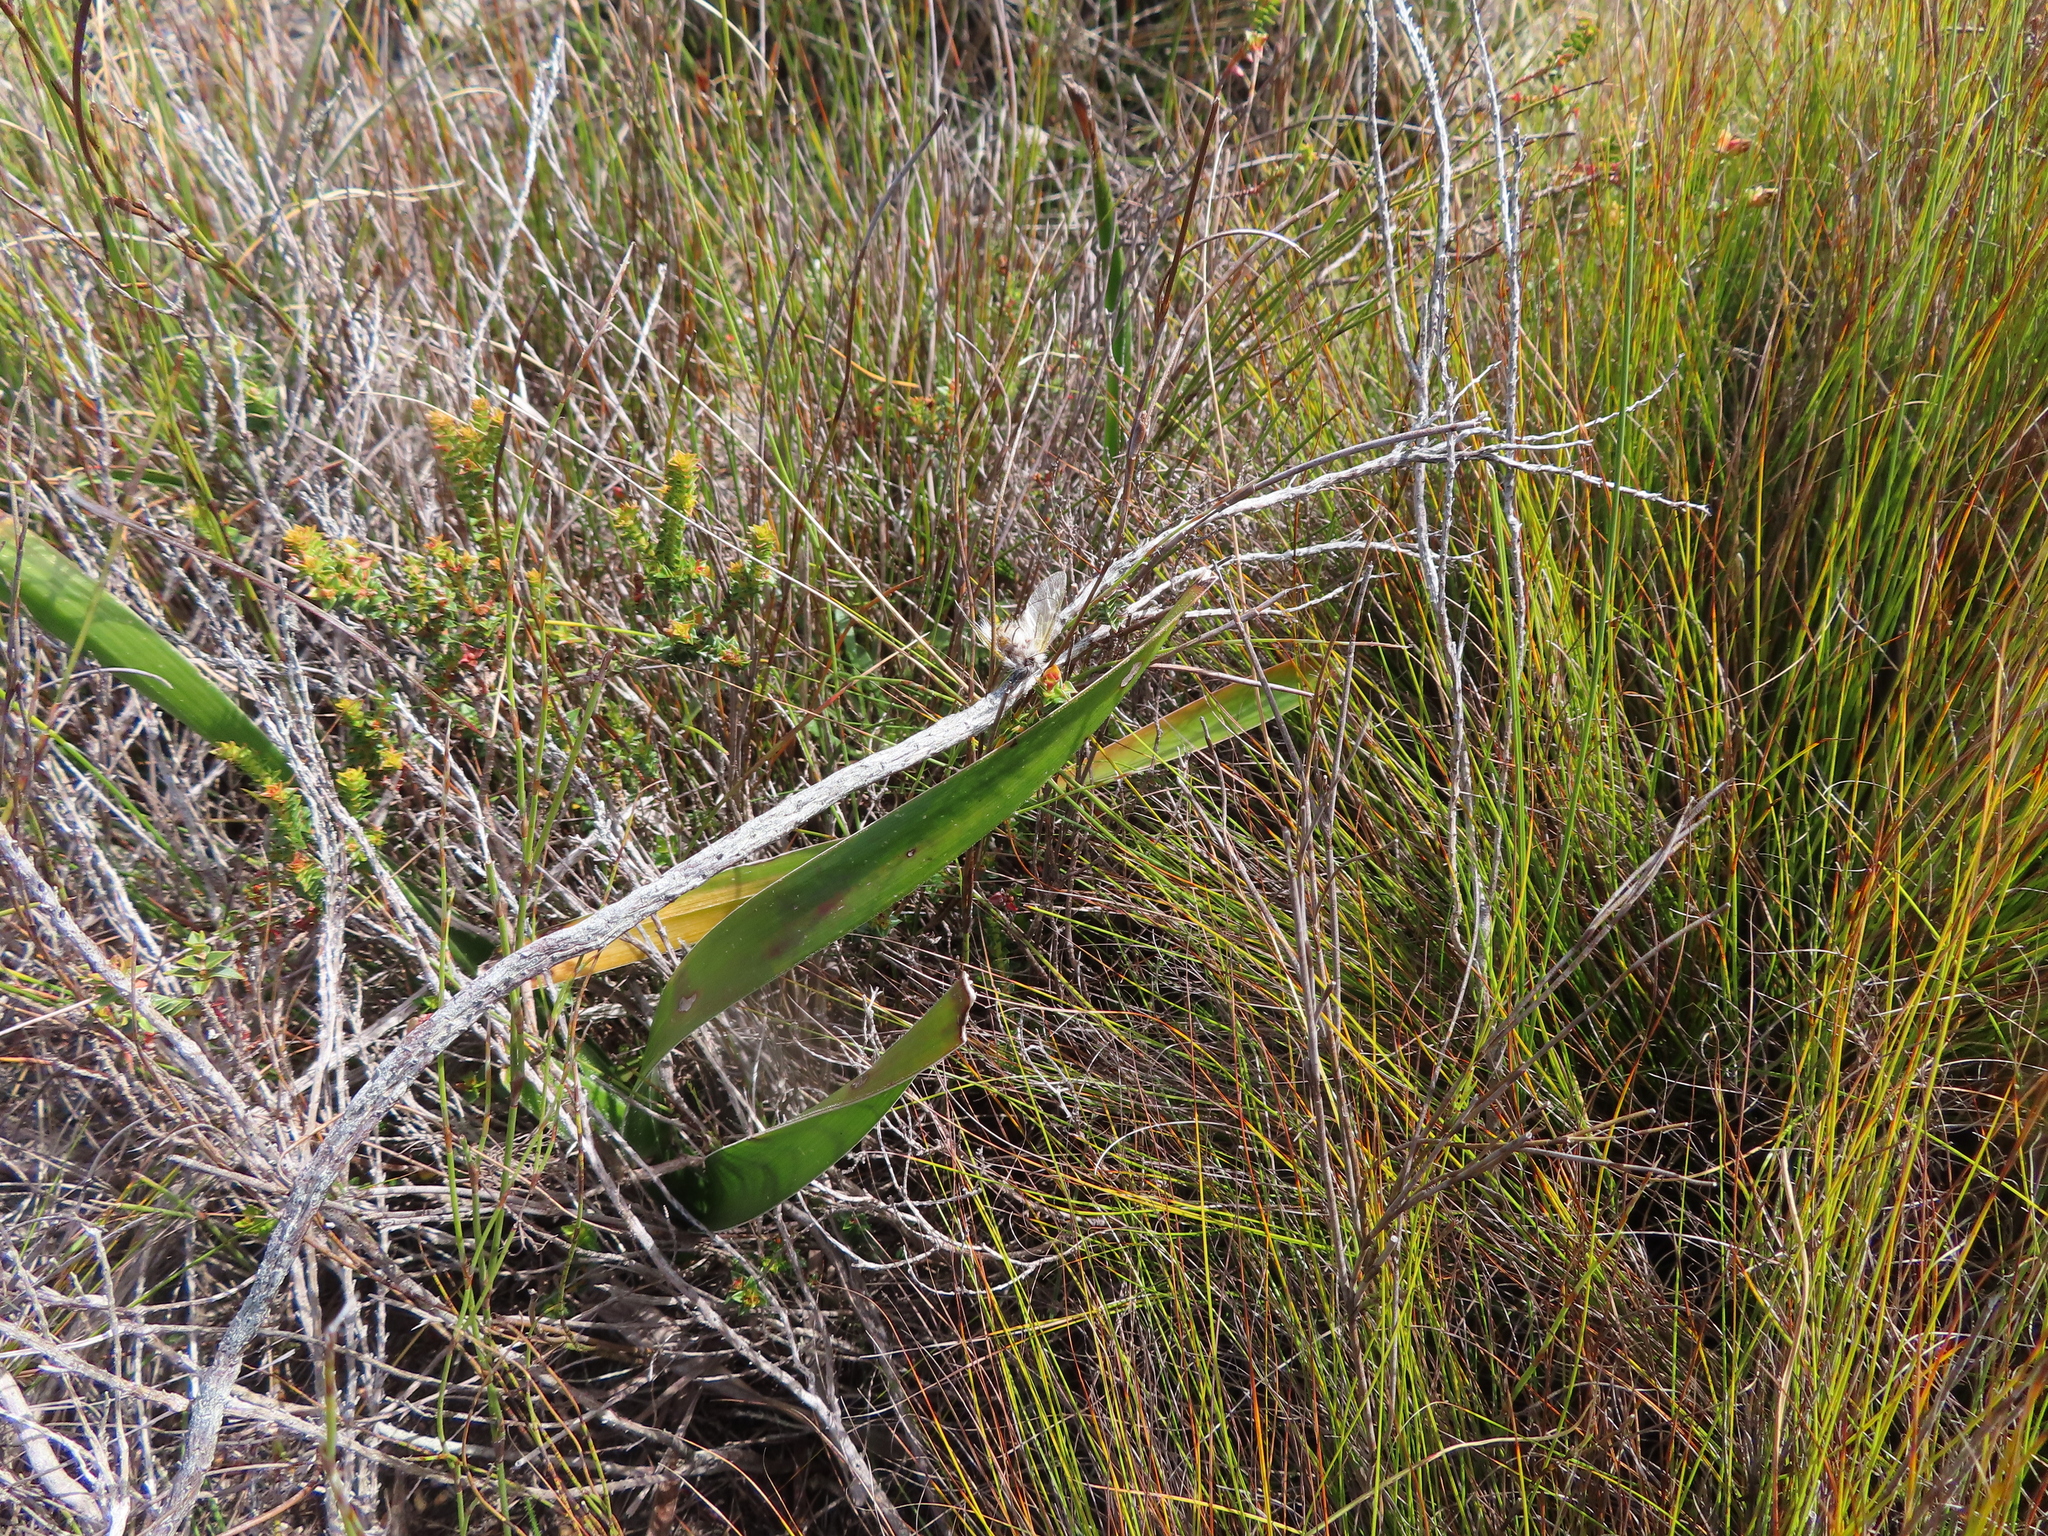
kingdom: Animalia
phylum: Arthropoda
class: Insecta
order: Lepidoptera
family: Somabrachyidae
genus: Psycharium
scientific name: Psycharium pellucens
